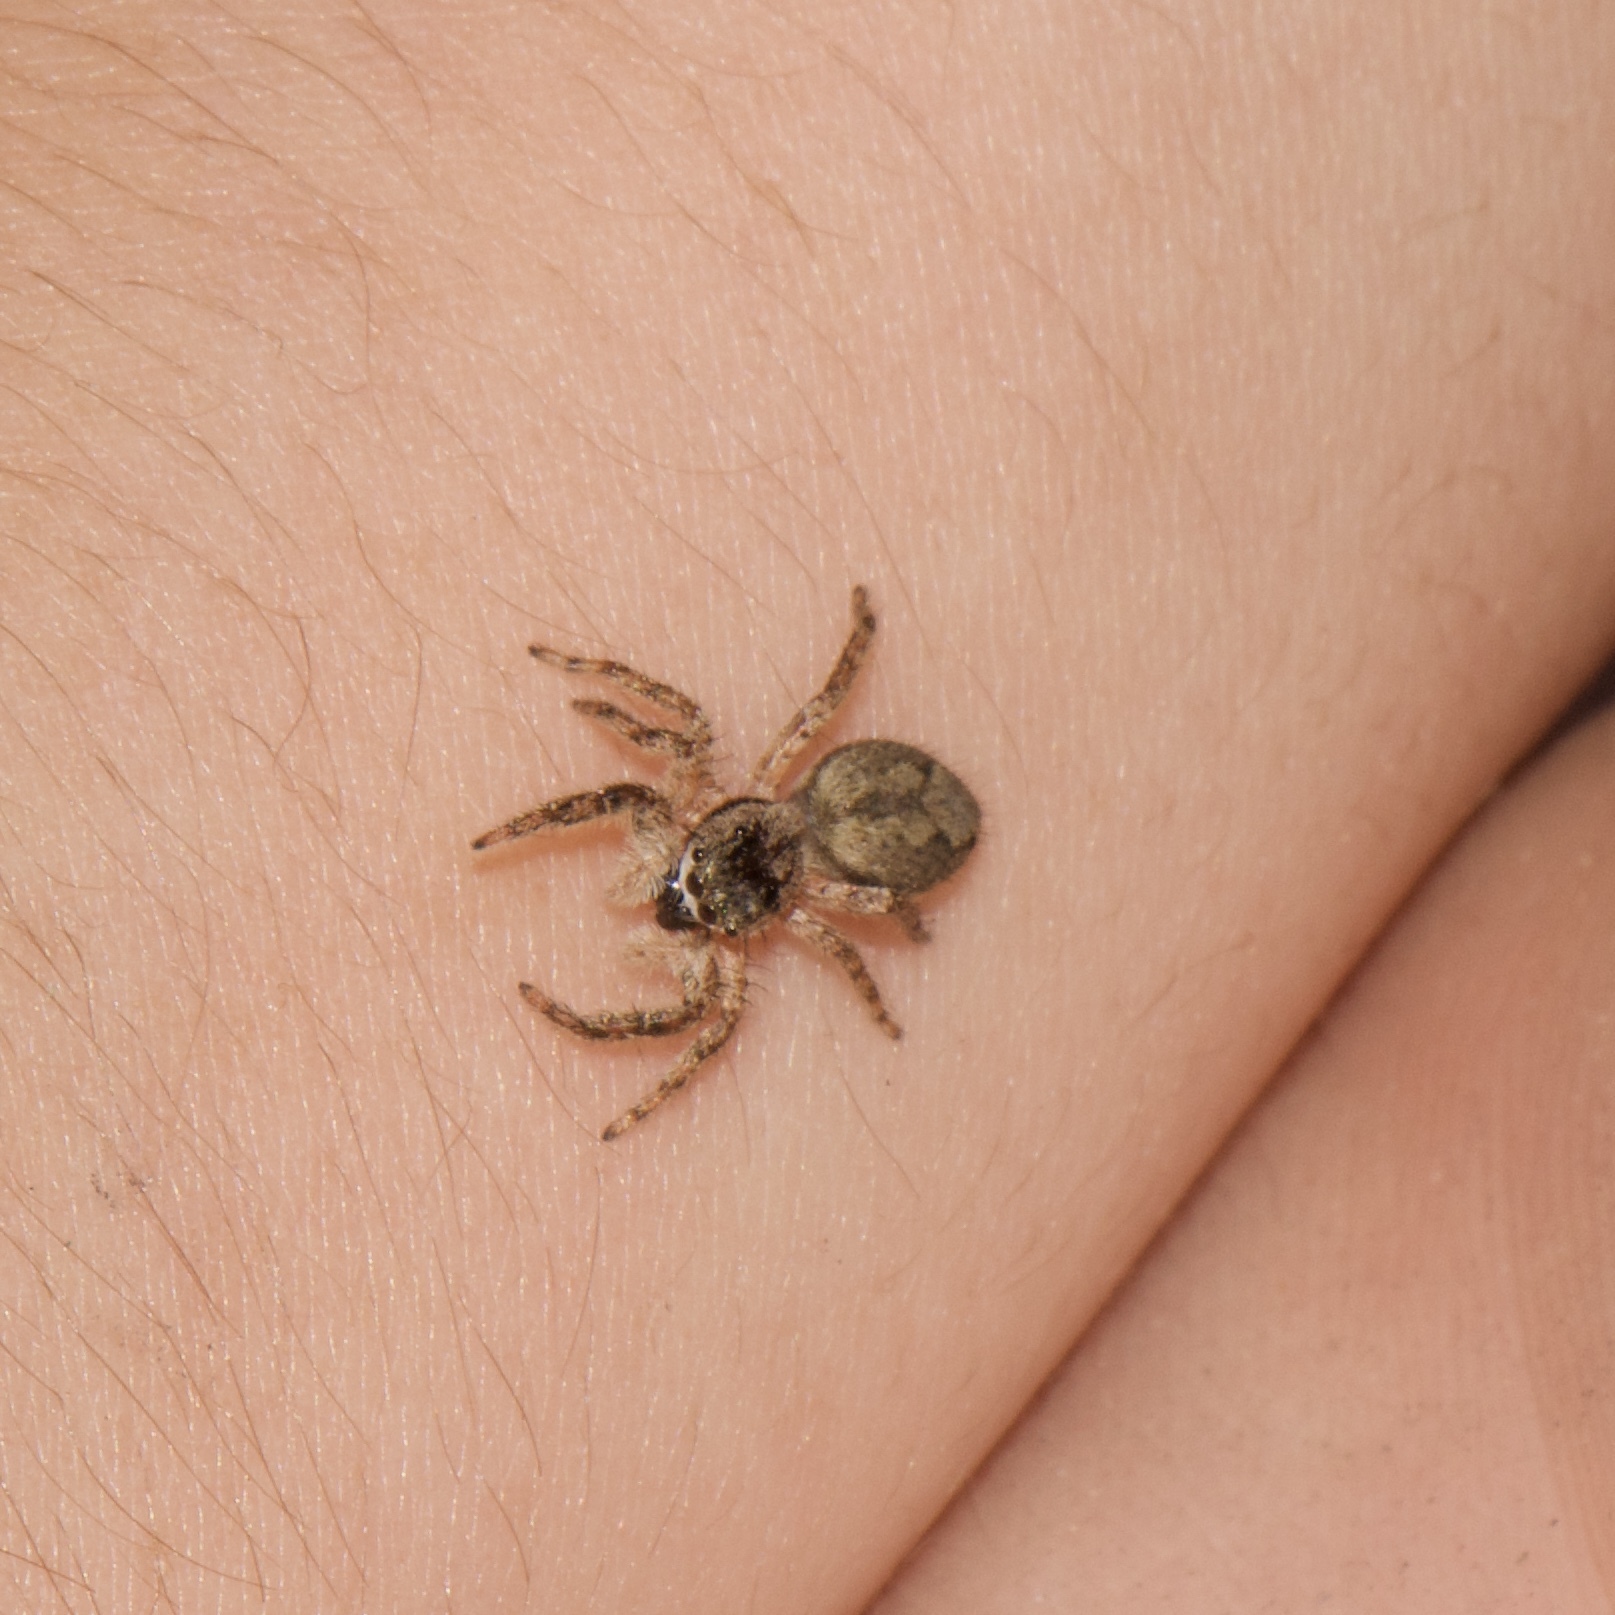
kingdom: Animalia
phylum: Arthropoda
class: Arachnida
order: Araneae
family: Salticidae
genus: Platycryptus
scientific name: Platycryptus undatus
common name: Tan jumping spider
